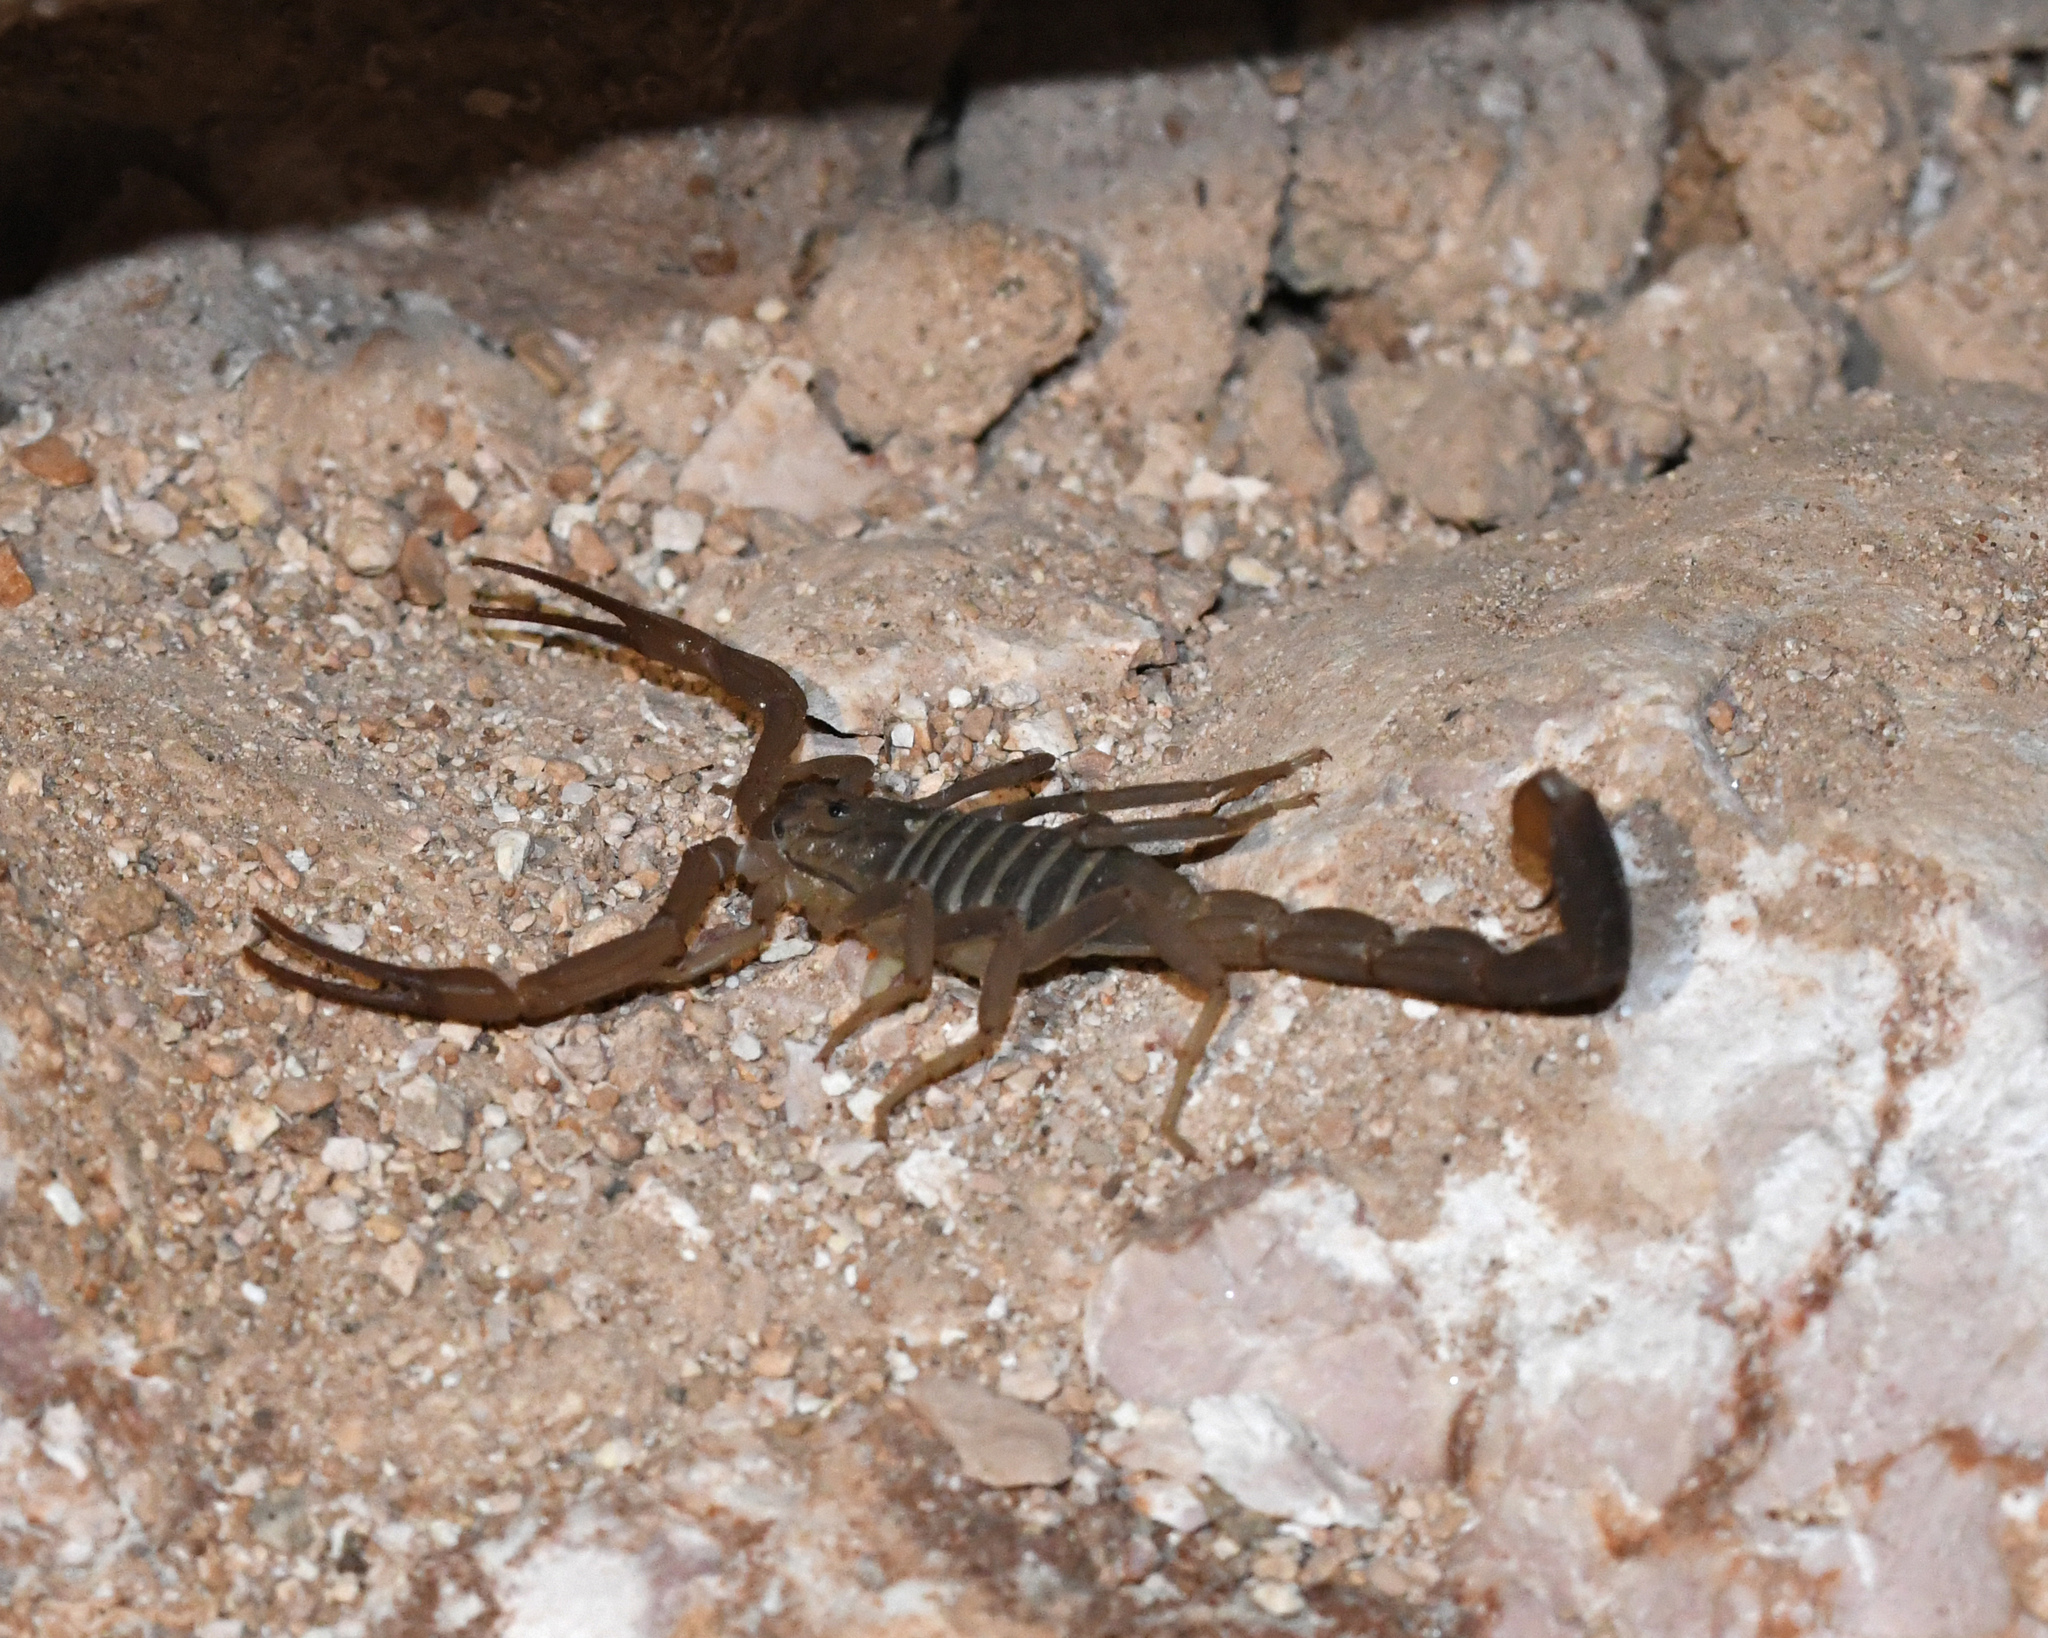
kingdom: Animalia
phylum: Arthropoda
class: Arachnida
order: Scorpiones
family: Buthidae
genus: Heteroctenus
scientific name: Heteroctenus bonettii
